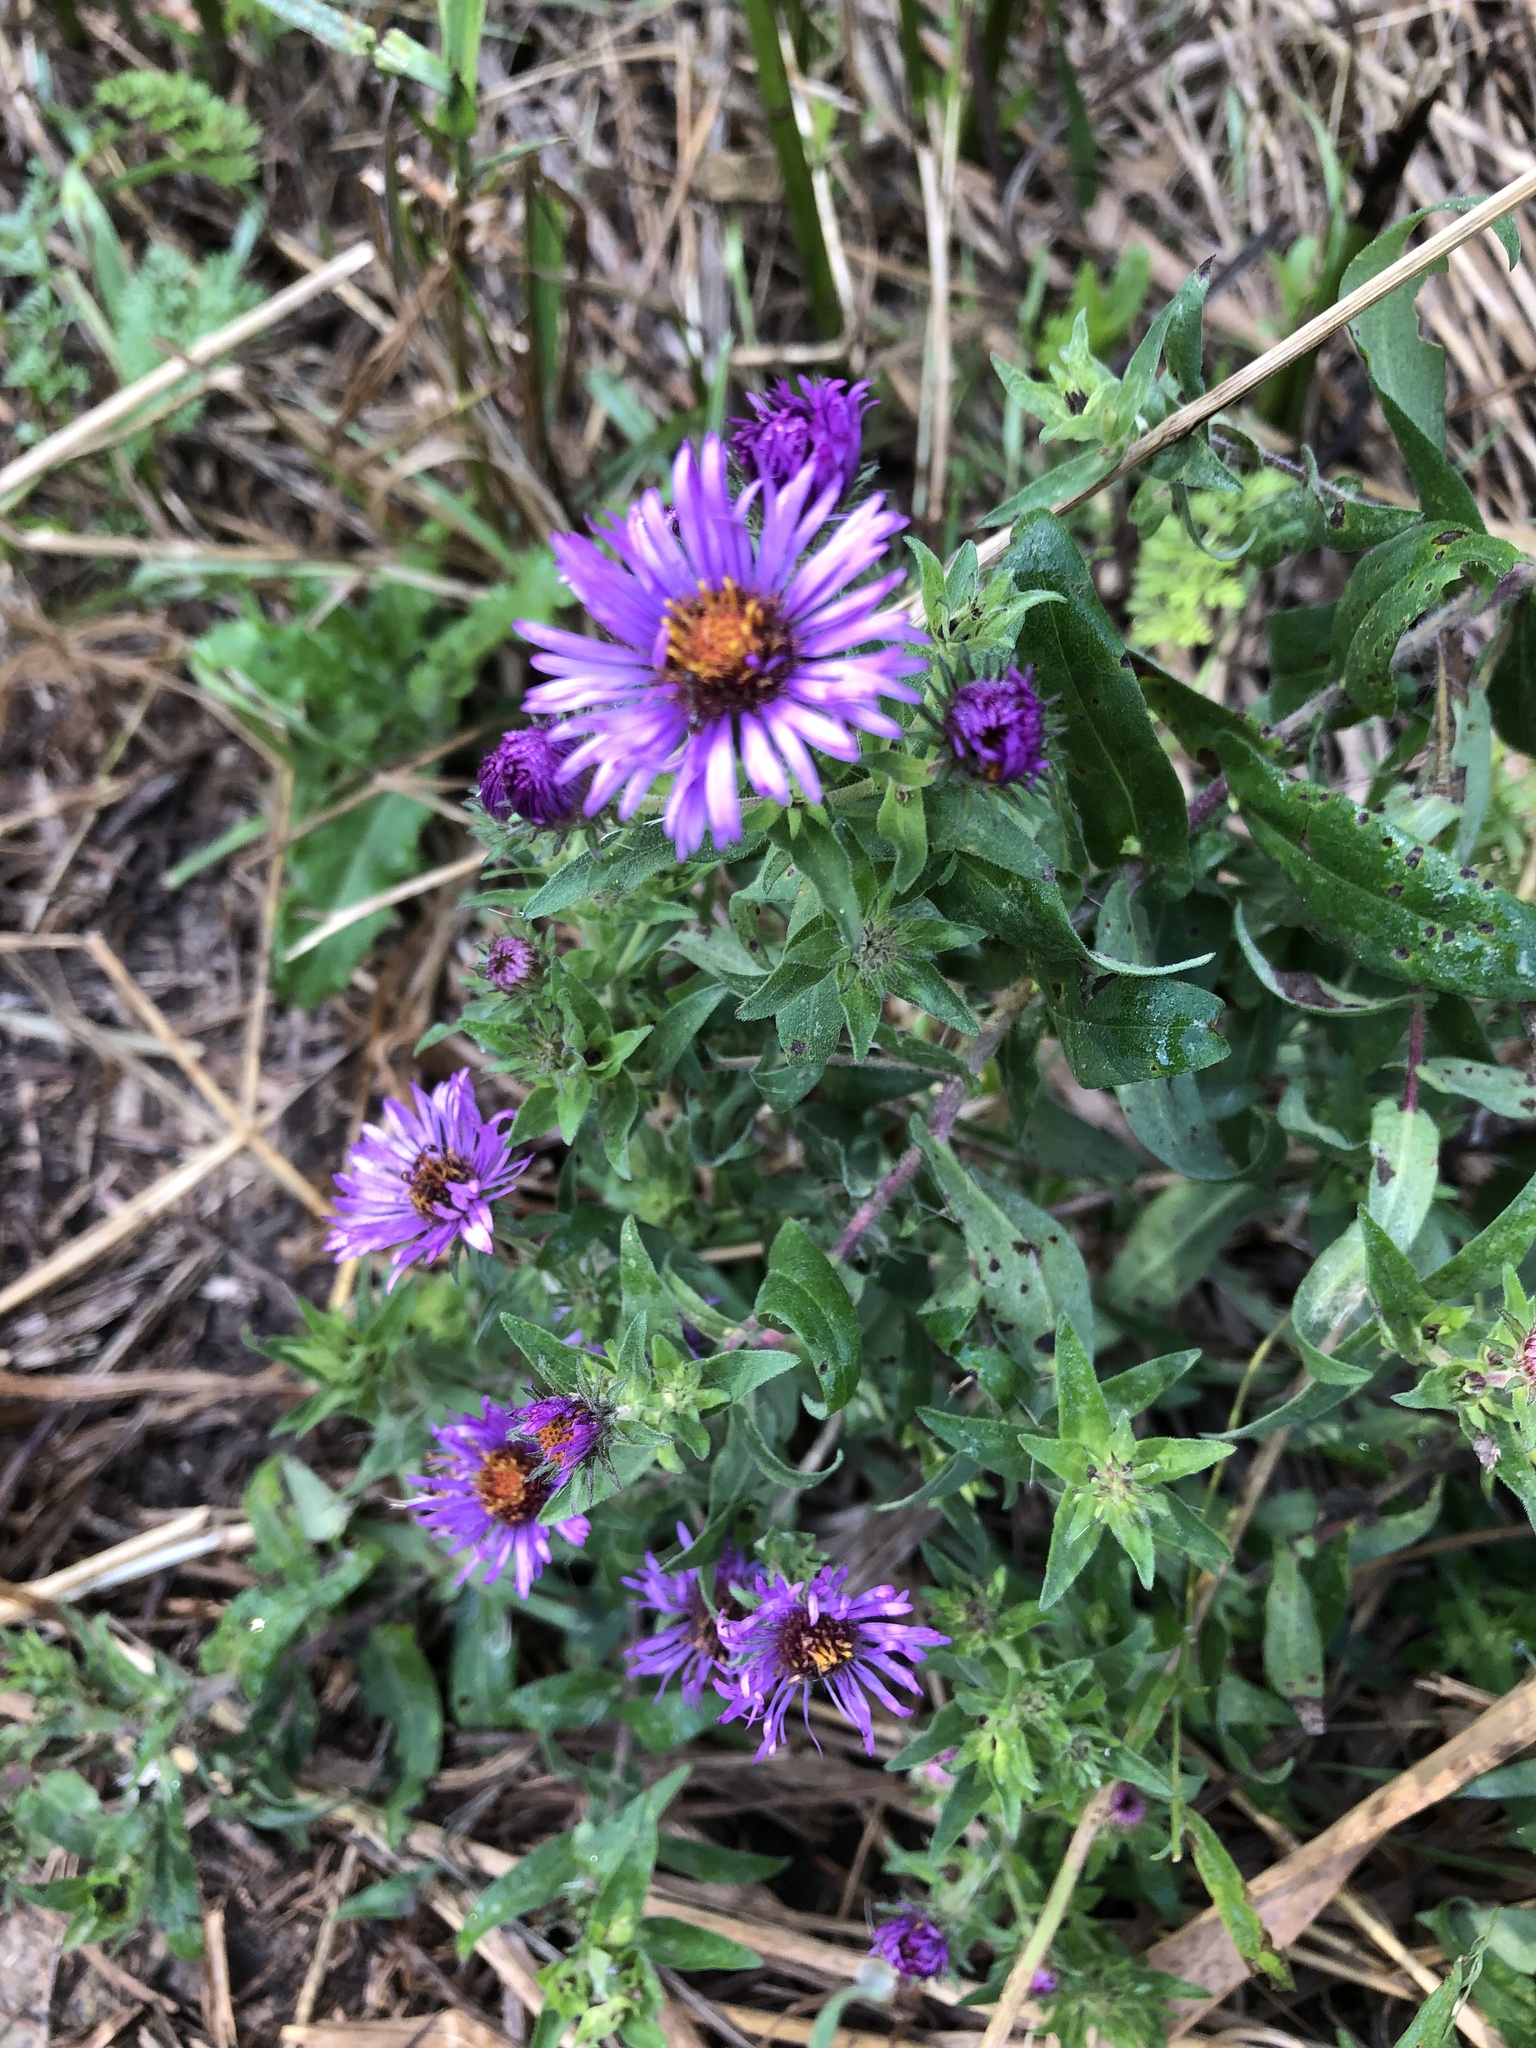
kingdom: Plantae
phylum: Tracheophyta
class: Magnoliopsida
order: Asterales
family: Asteraceae
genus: Symphyotrichum
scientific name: Symphyotrichum novae-angliae
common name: Michaelmas daisy
